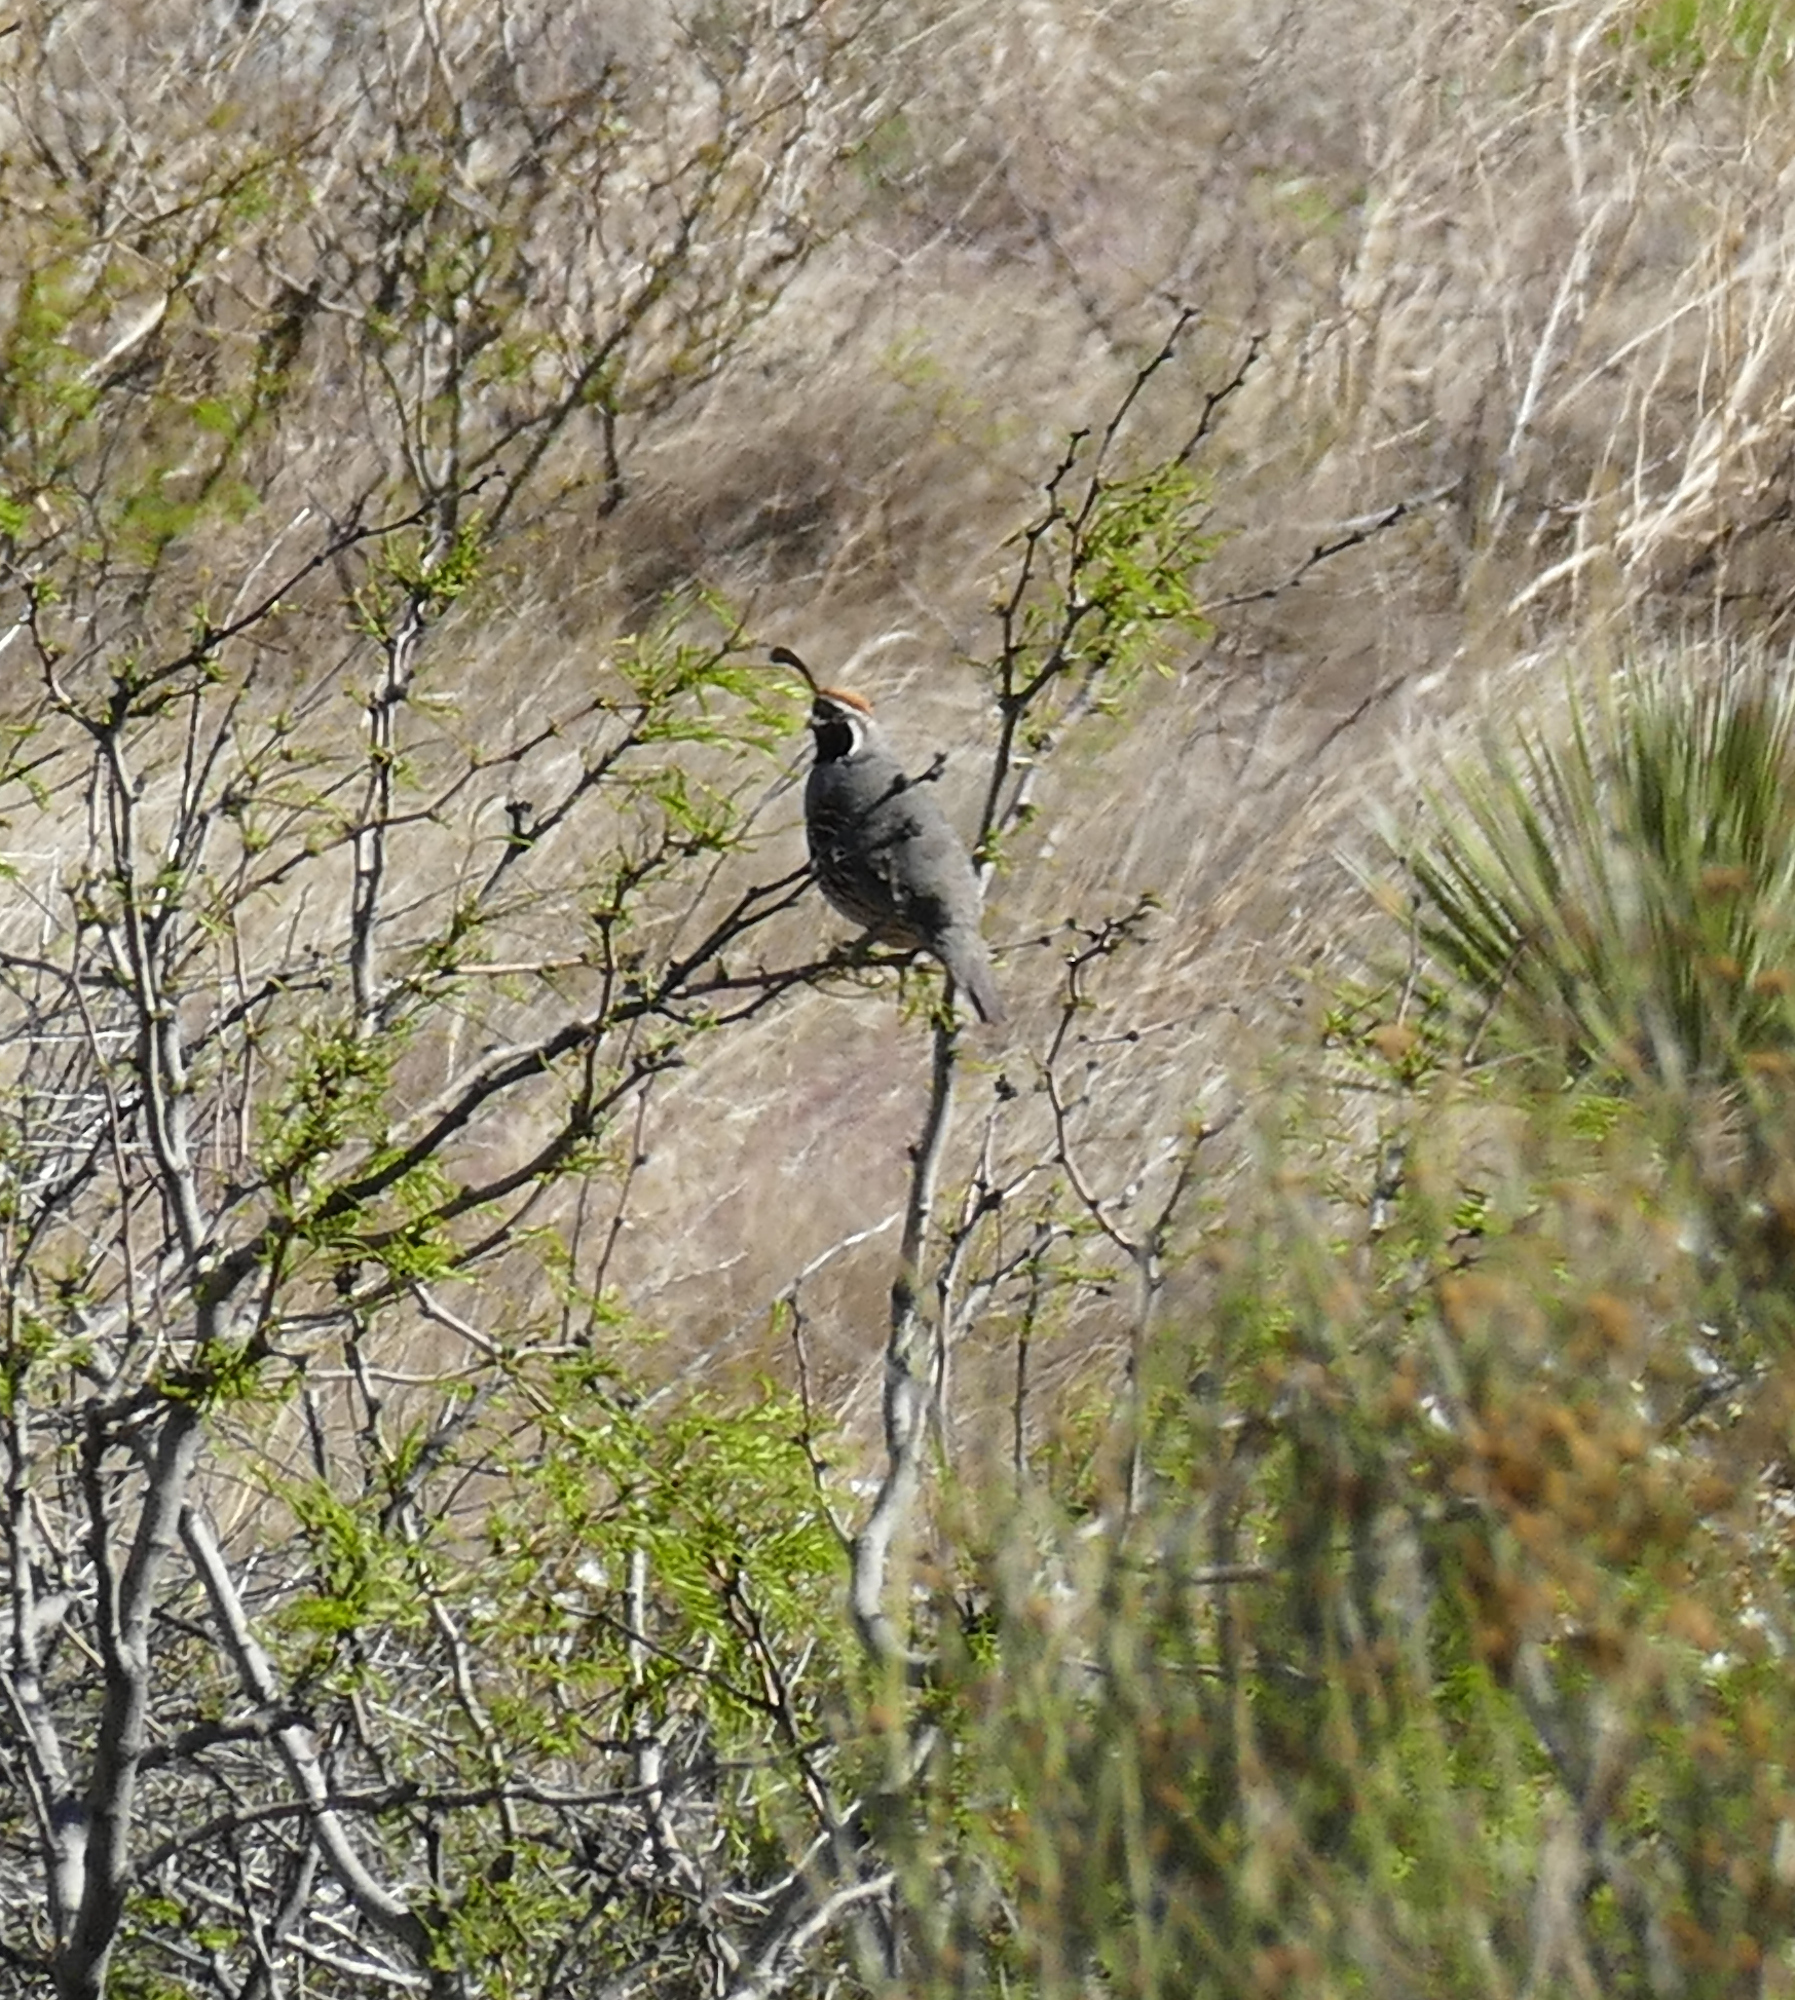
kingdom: Animalia
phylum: Chordata
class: Aves
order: Galliformes
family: Odontophoridae
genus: Callipepla
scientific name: Callipepla gambelii
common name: Gambel's quail
